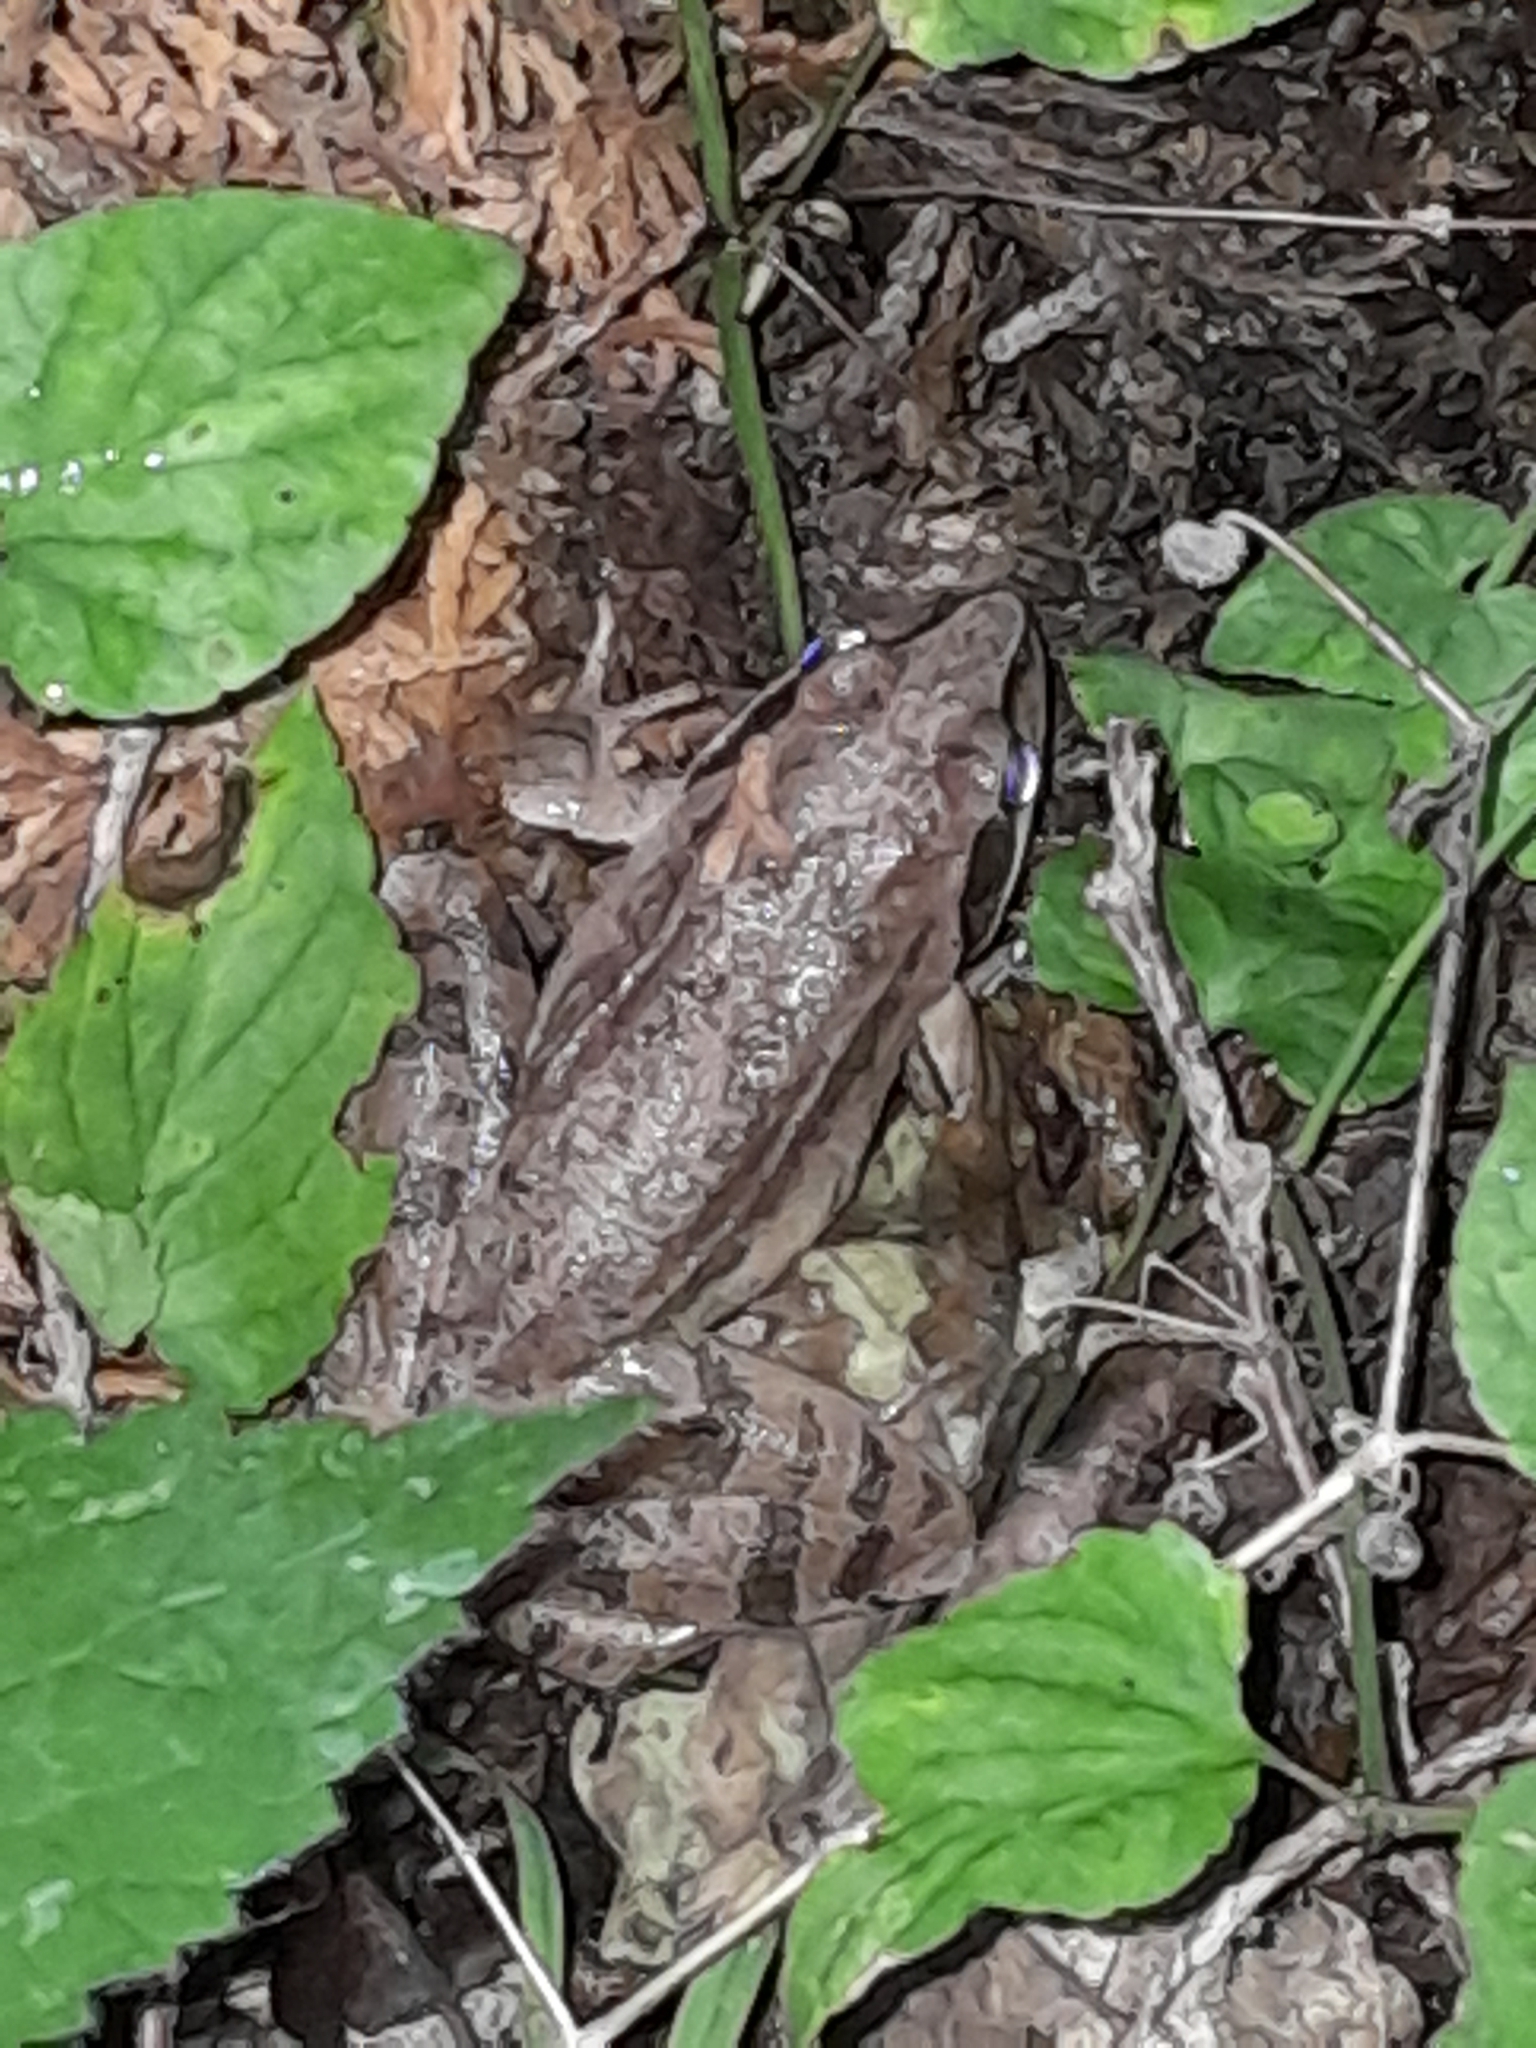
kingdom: Animalia
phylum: Chordata
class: Amphibia
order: Anura
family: Ranidae
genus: Rana
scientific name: Rana dalmatina
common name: Agile frog
